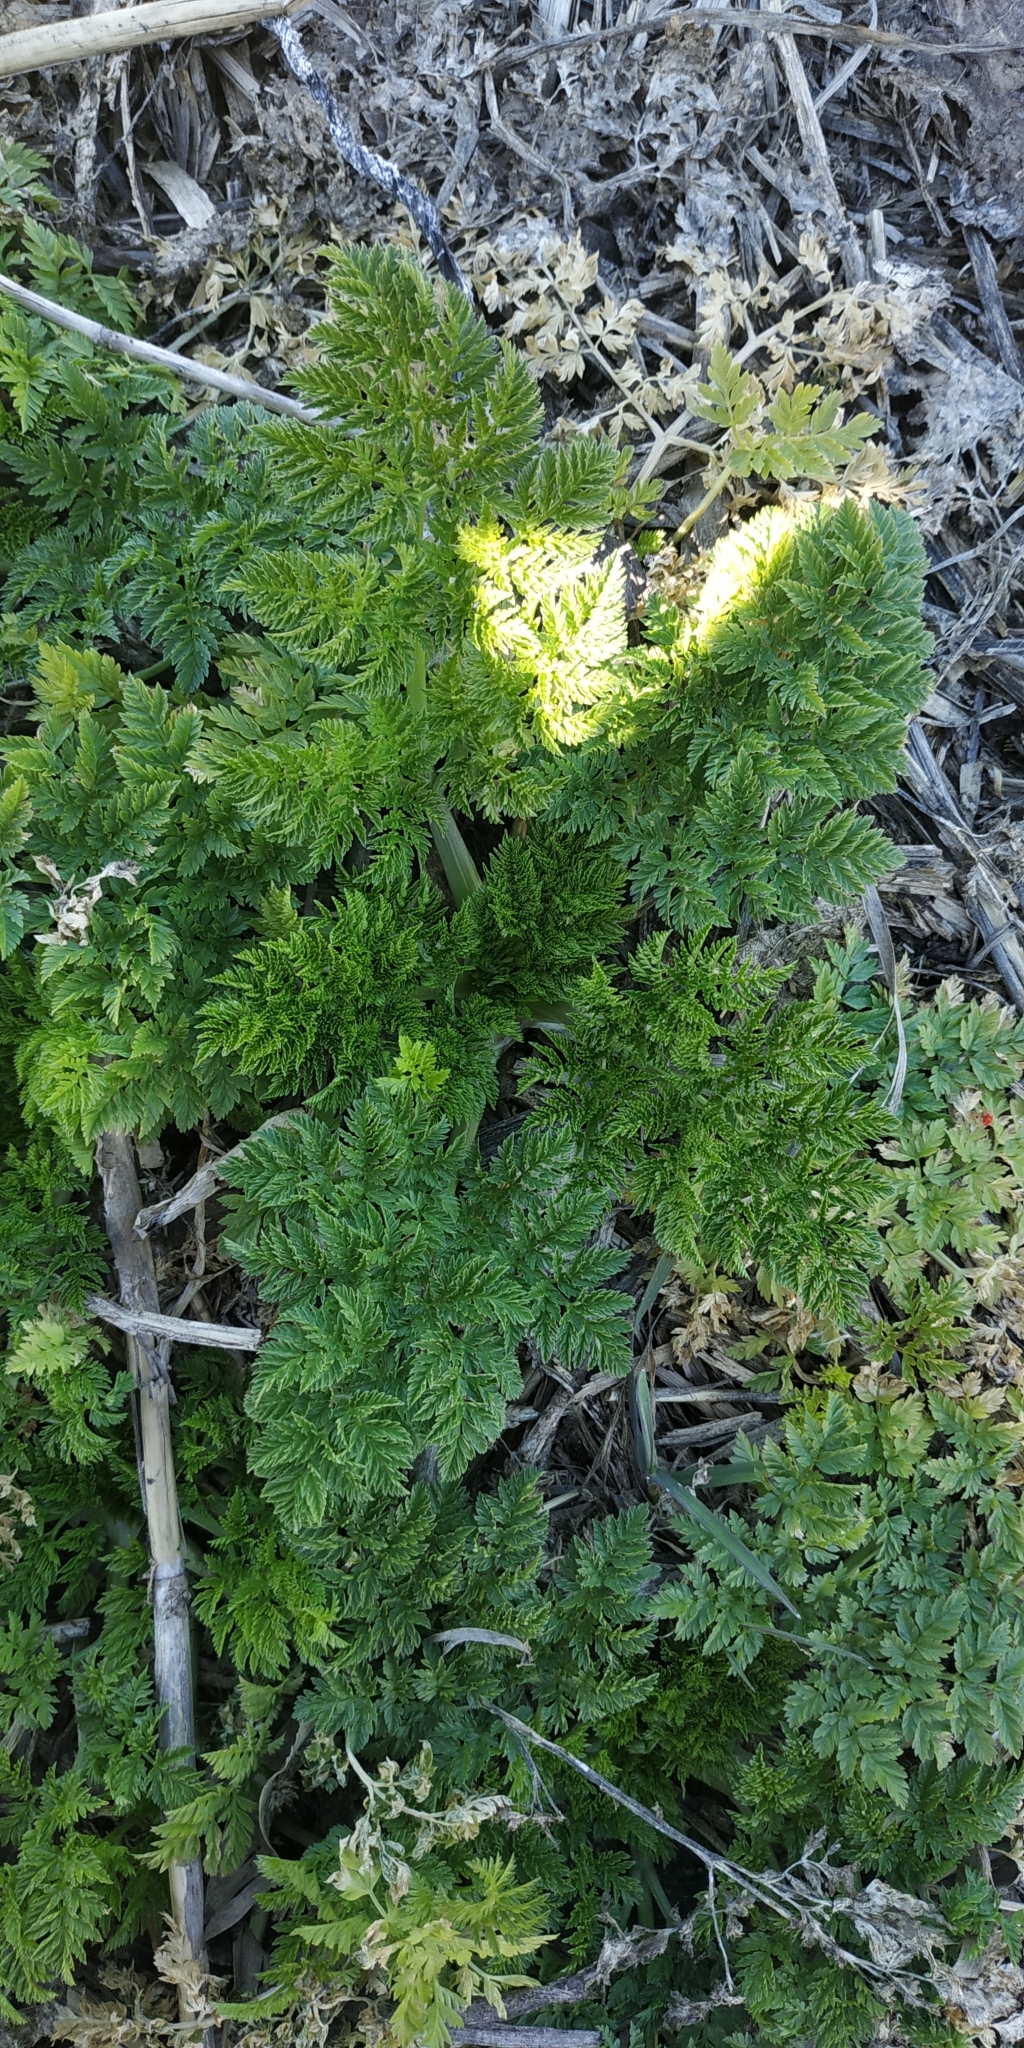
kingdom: Plantae
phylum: Tracheophyta
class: Magnoliopsida
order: Apiales
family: Apiaceae
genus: Anthriscus
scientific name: Anthriscus sylvestris
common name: Cow parsley
